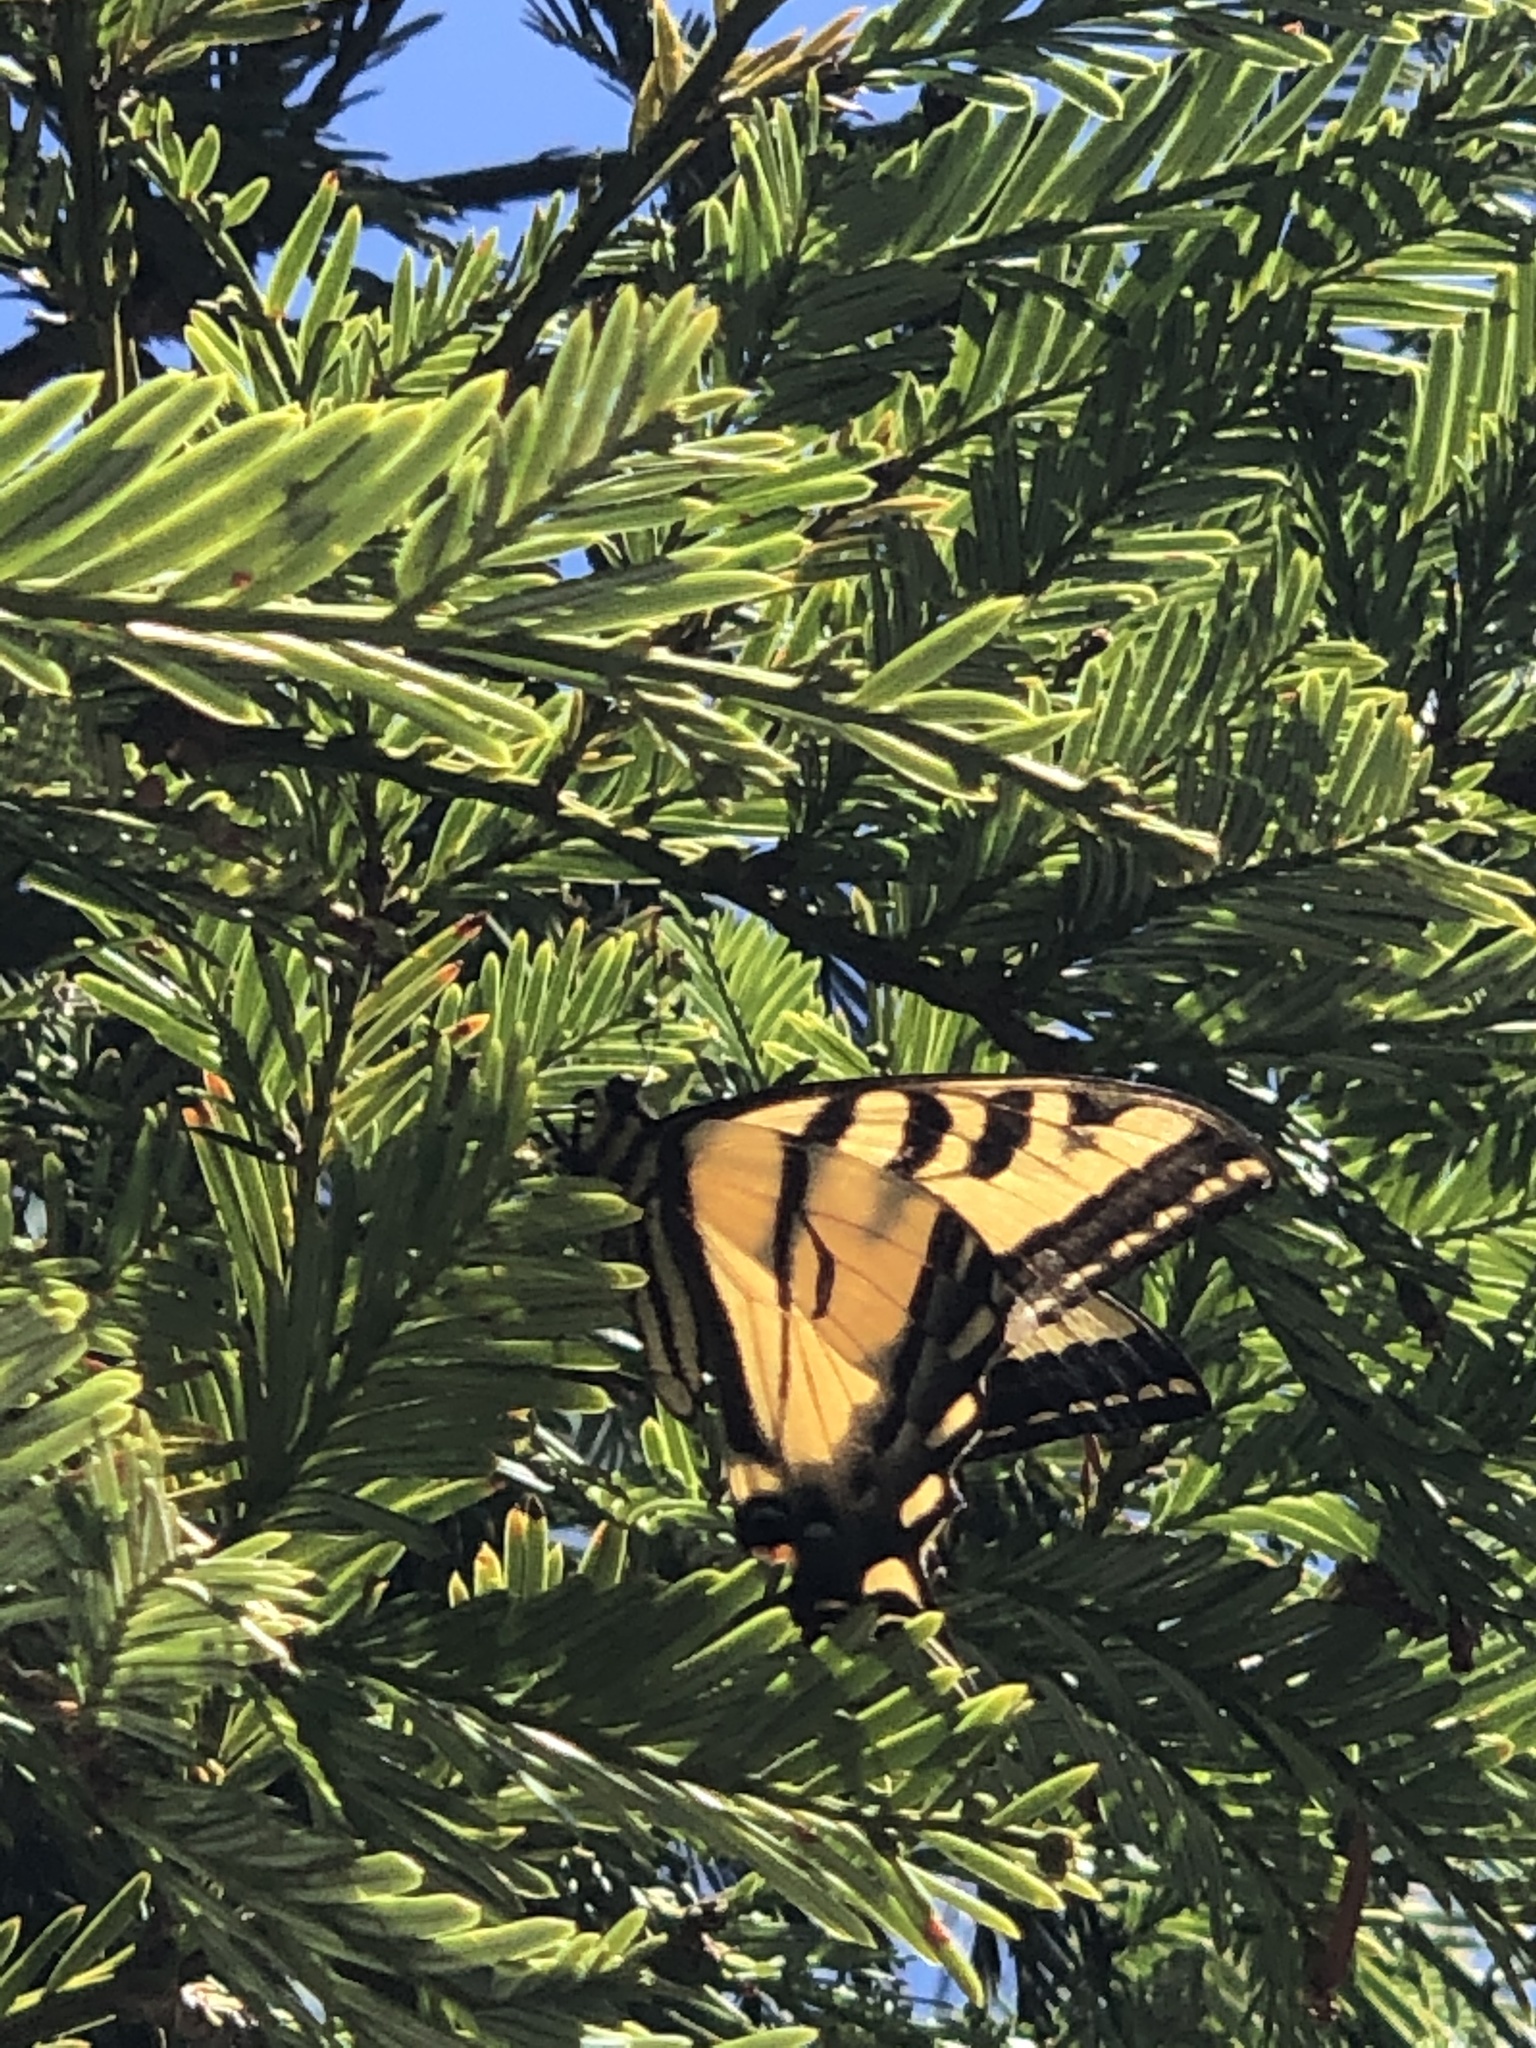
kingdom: Animalia
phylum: Arthropoda
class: Insecta
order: Lepidoptera
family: Papilionidae
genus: Papilio
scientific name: Papilio rutulus
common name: Western tiger swallowtail
